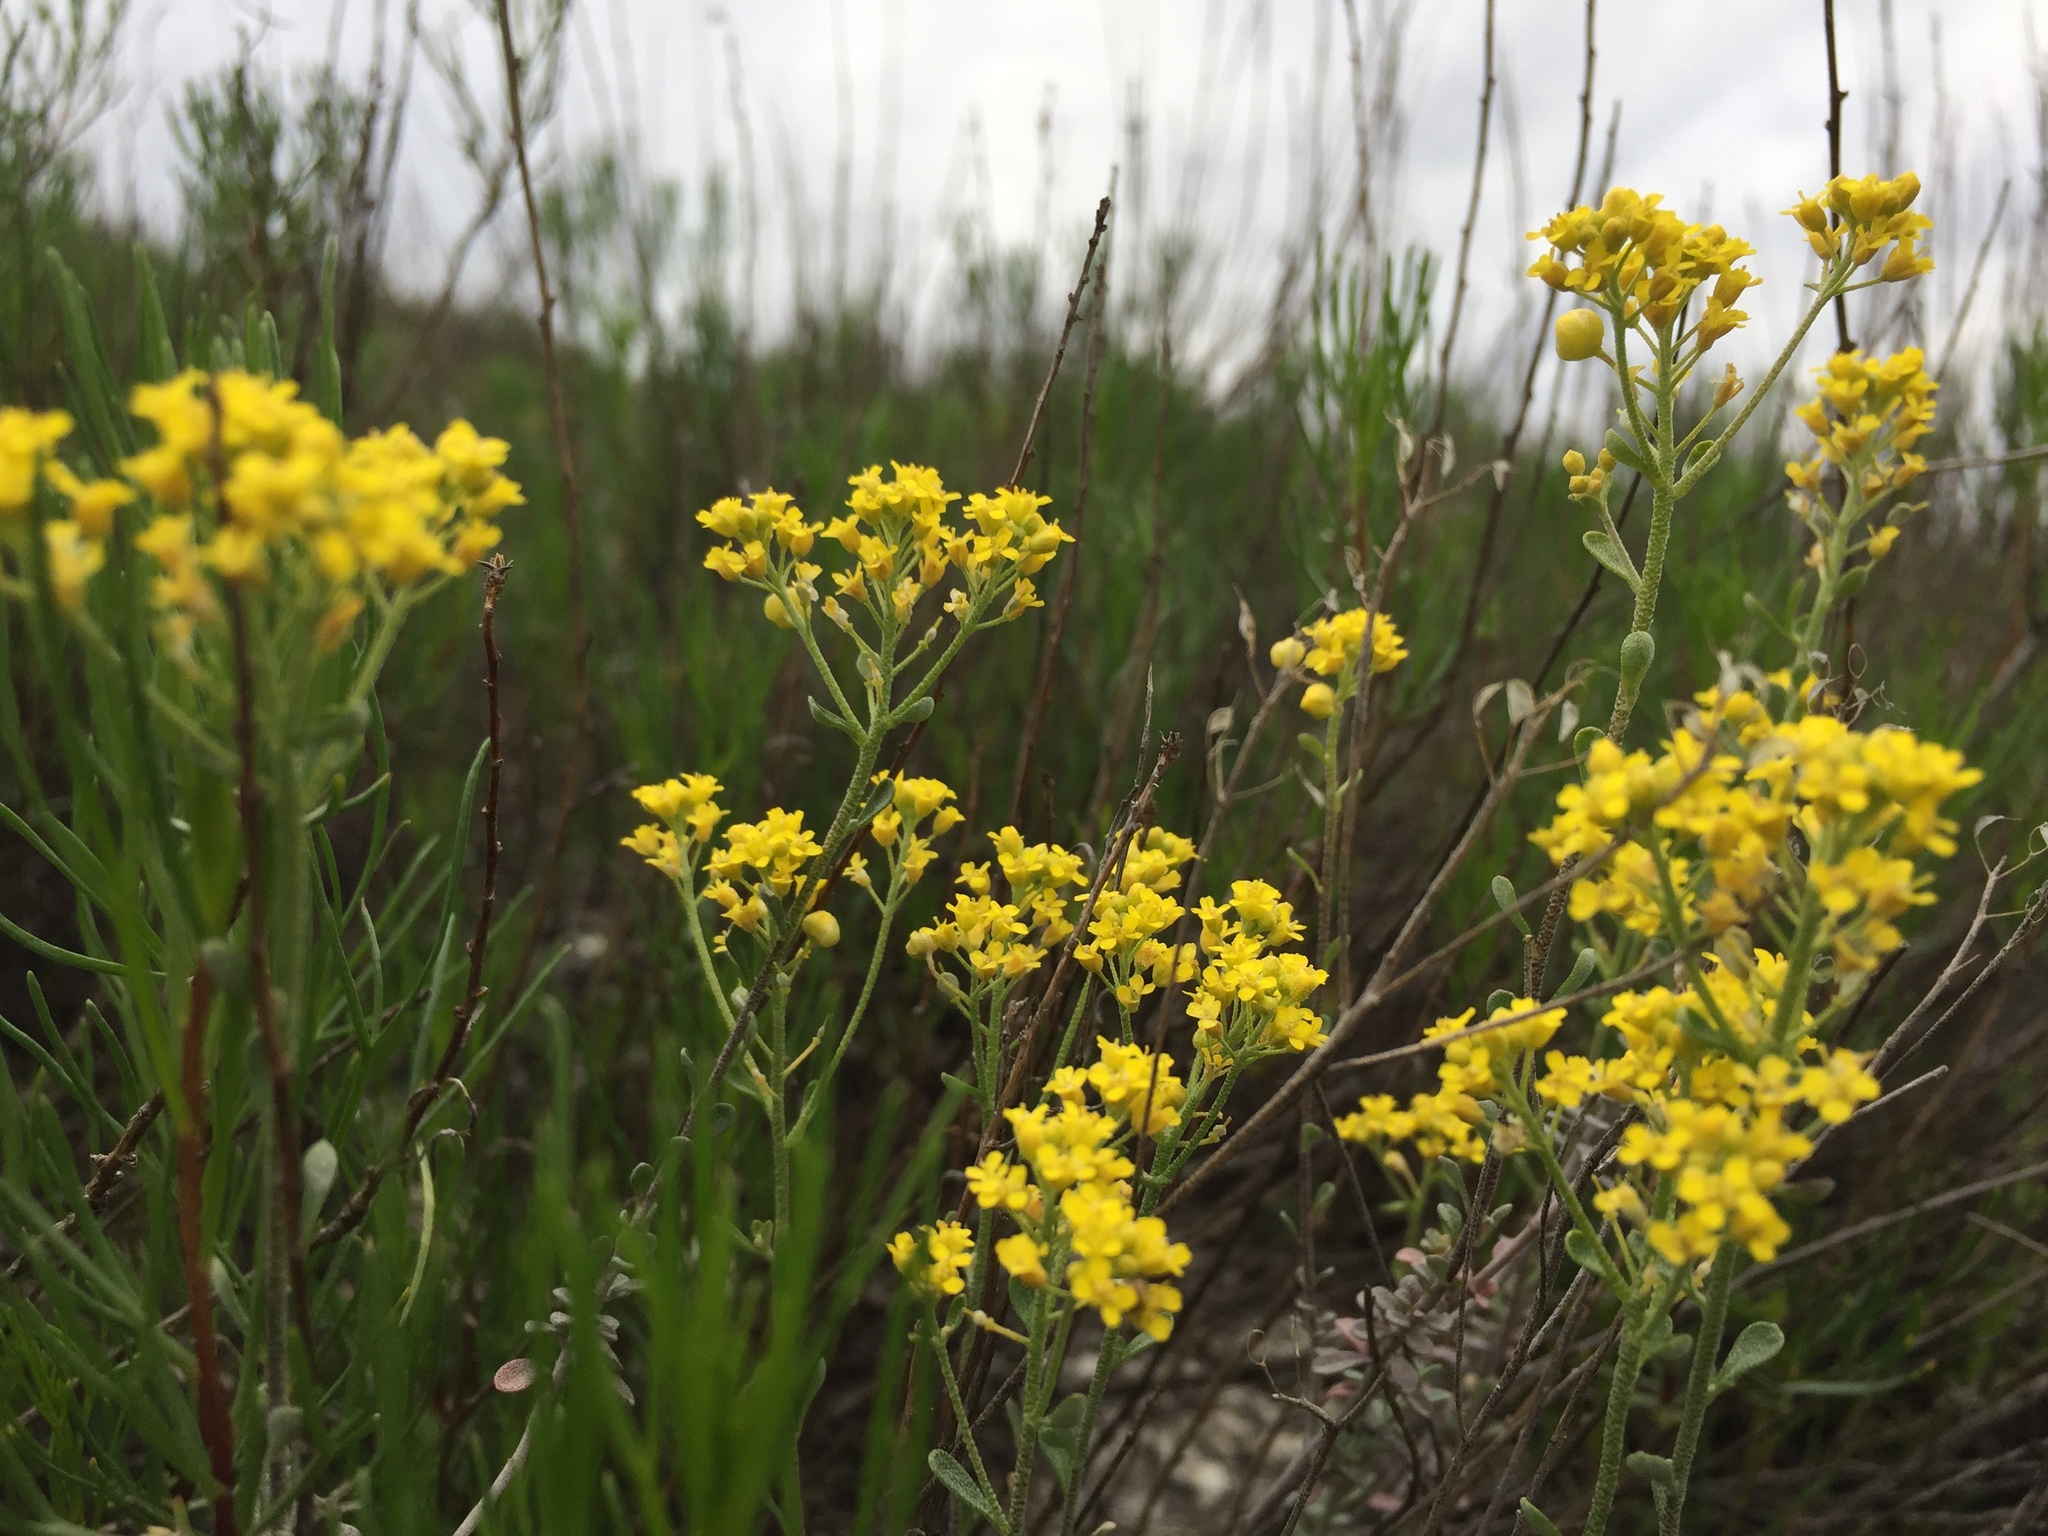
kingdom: Plantae
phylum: Tracheophyta
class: Magnoliopsida
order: Brassicales
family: Brassicaceae
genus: Odontarrhena
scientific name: Odontarrhena tortuosa
